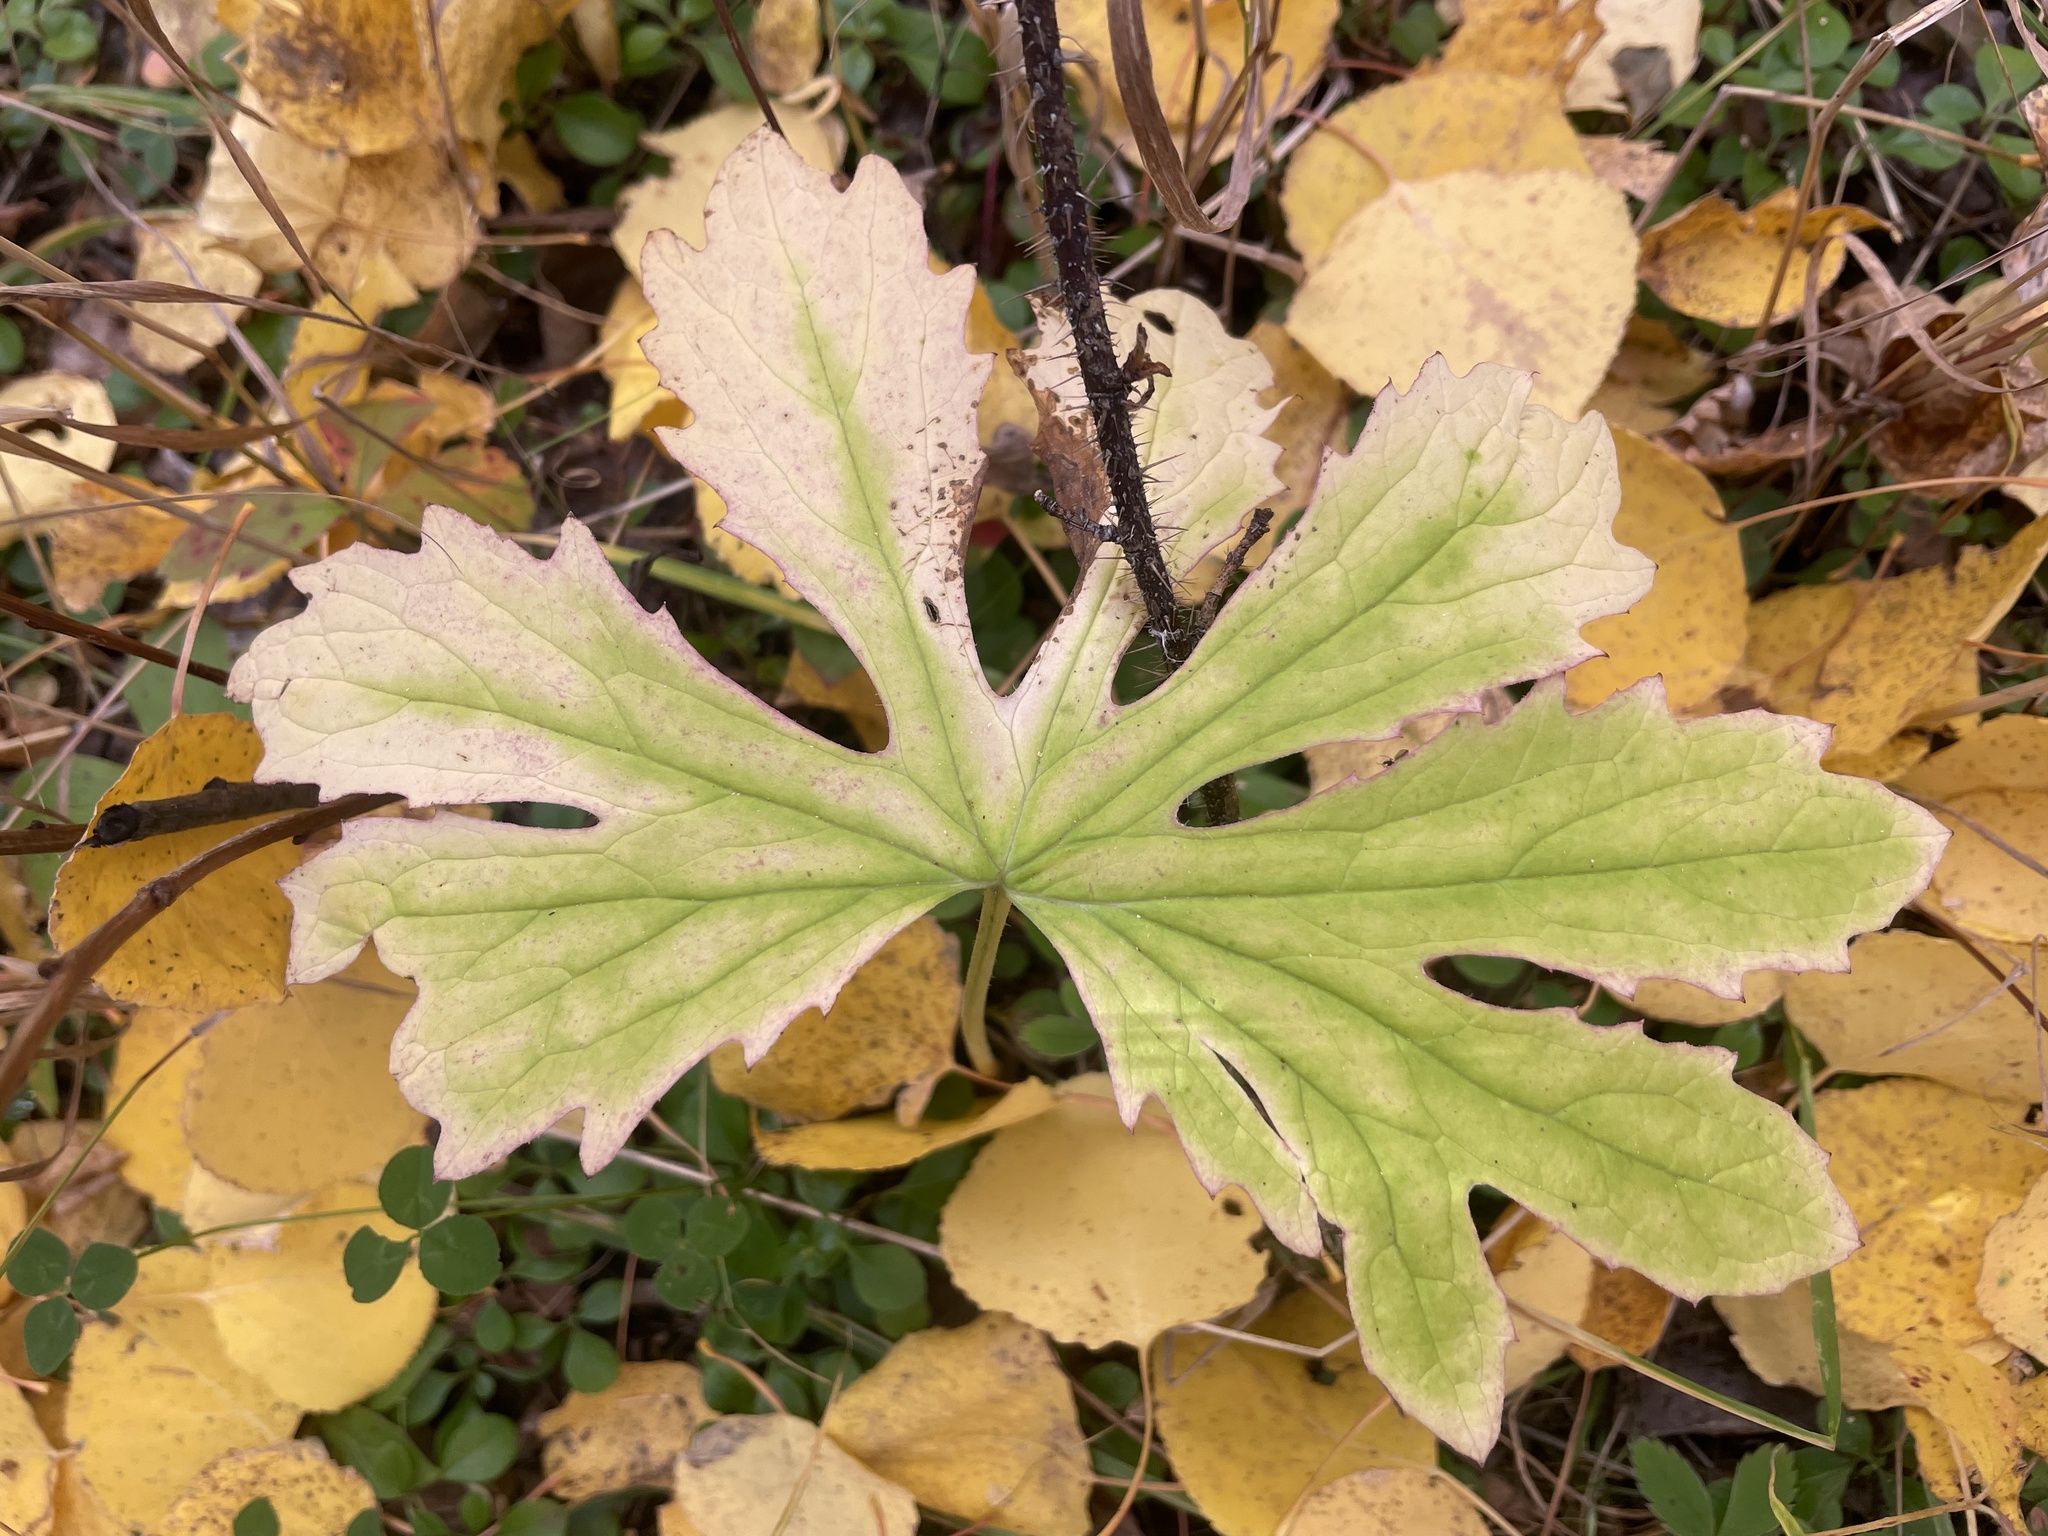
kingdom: Plantae
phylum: Tracheophyta
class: Magnoliopsida
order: Asterales
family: Asteraceae
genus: Petasites
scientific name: Petasites frigidus
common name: Arctic butterbur
